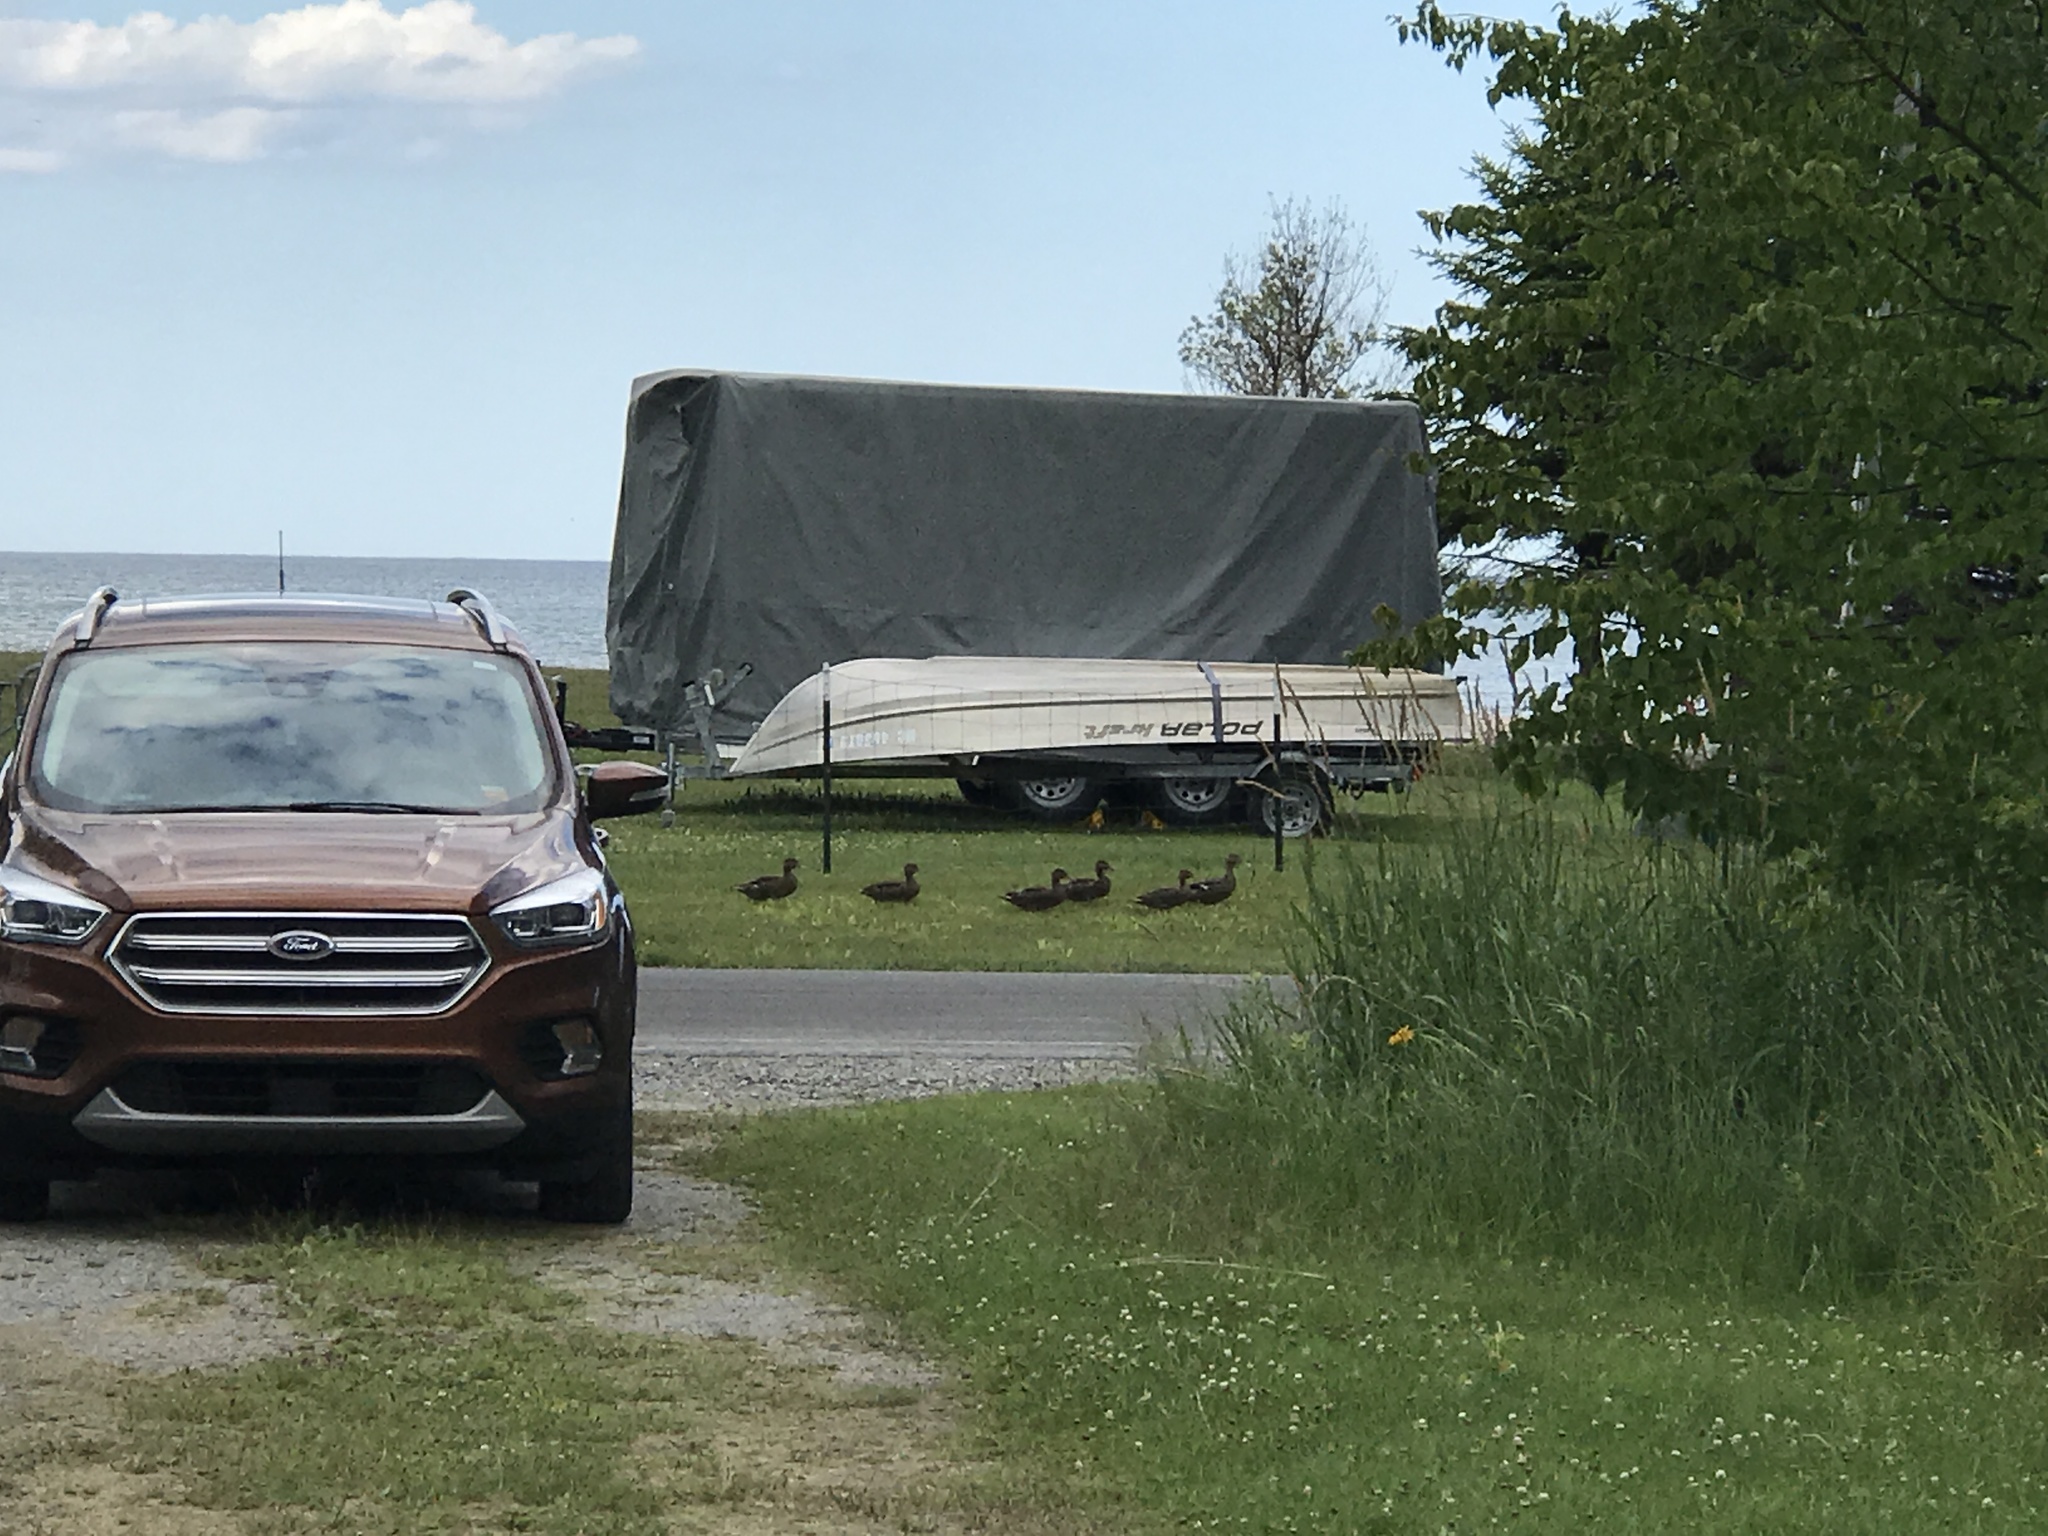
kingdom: Animalia
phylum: Chordata
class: Aves
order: Anseriformes
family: Anatidae
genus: Anas
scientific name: Anas platyrhynchos
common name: Mallard
